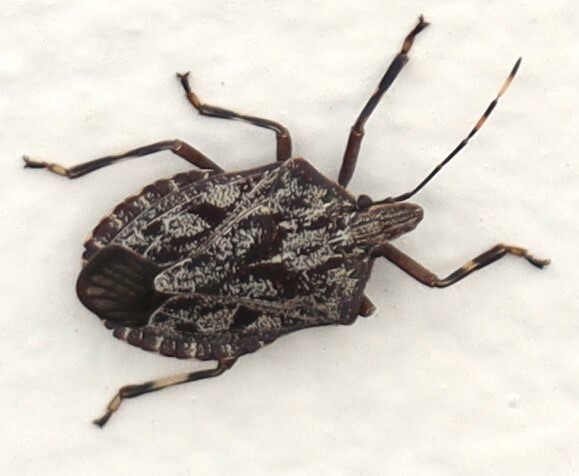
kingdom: Animalia
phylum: Arthropoda
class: Insecta
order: Hemiptera
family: Pentatomidae
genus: Coenomorpha
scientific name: Coenomorpha nervosa
